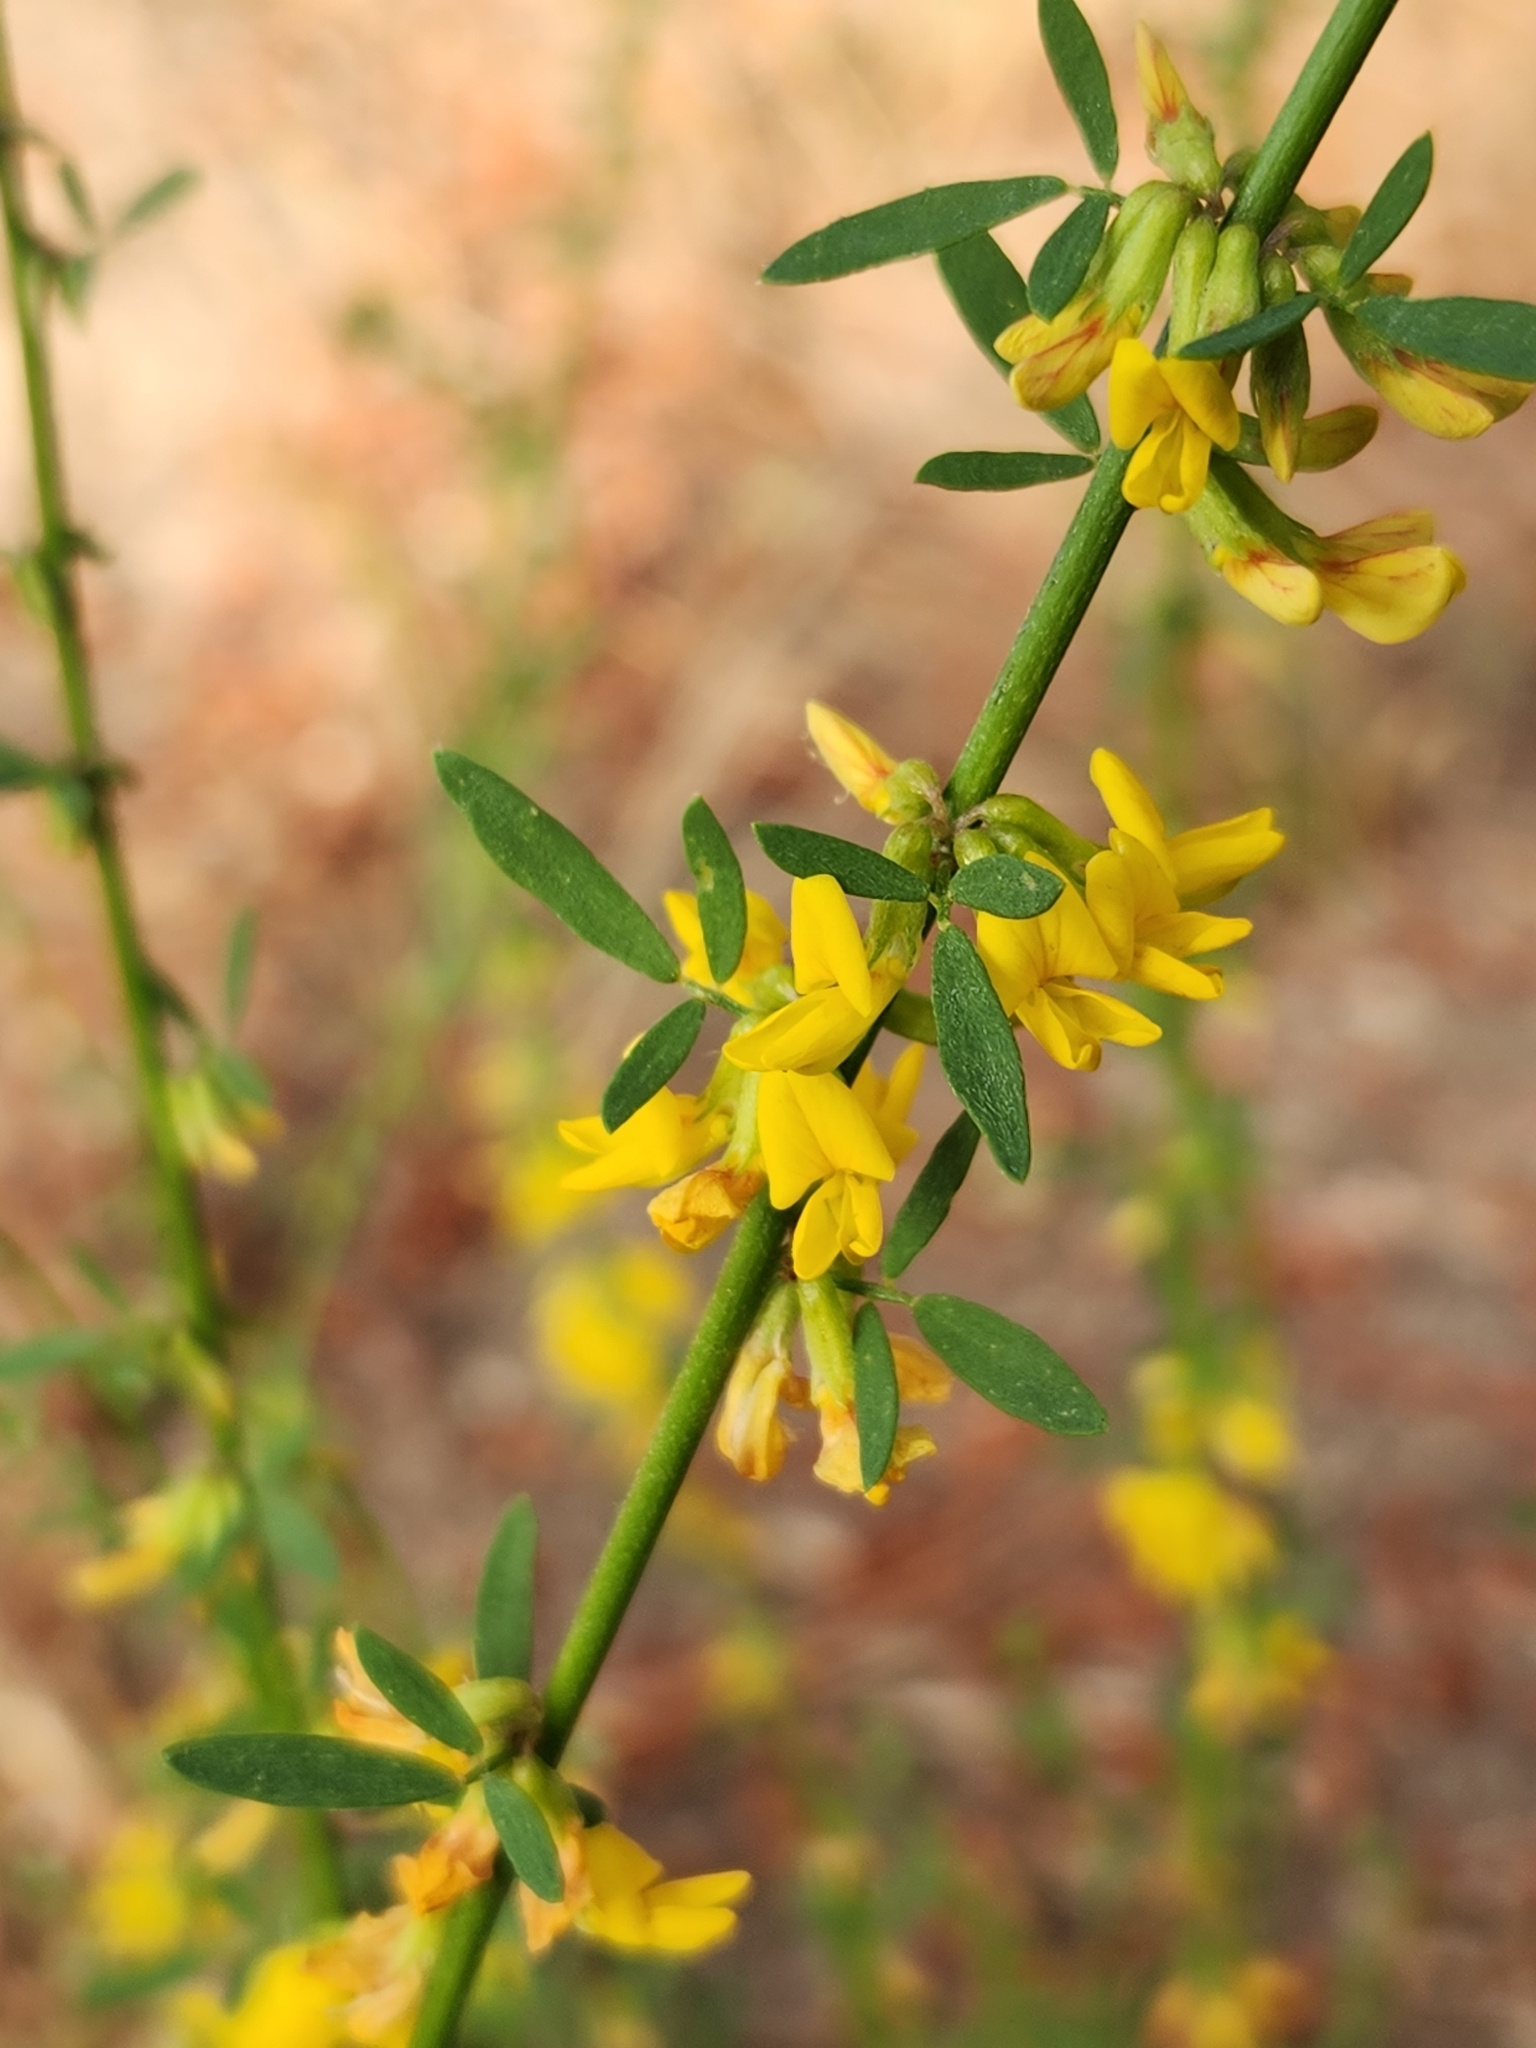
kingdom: Plantae
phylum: Tracheophyta
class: Magnoliopsida
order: Fabales
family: Fabaceae
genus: Acmispon
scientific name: Acmispon glaber
